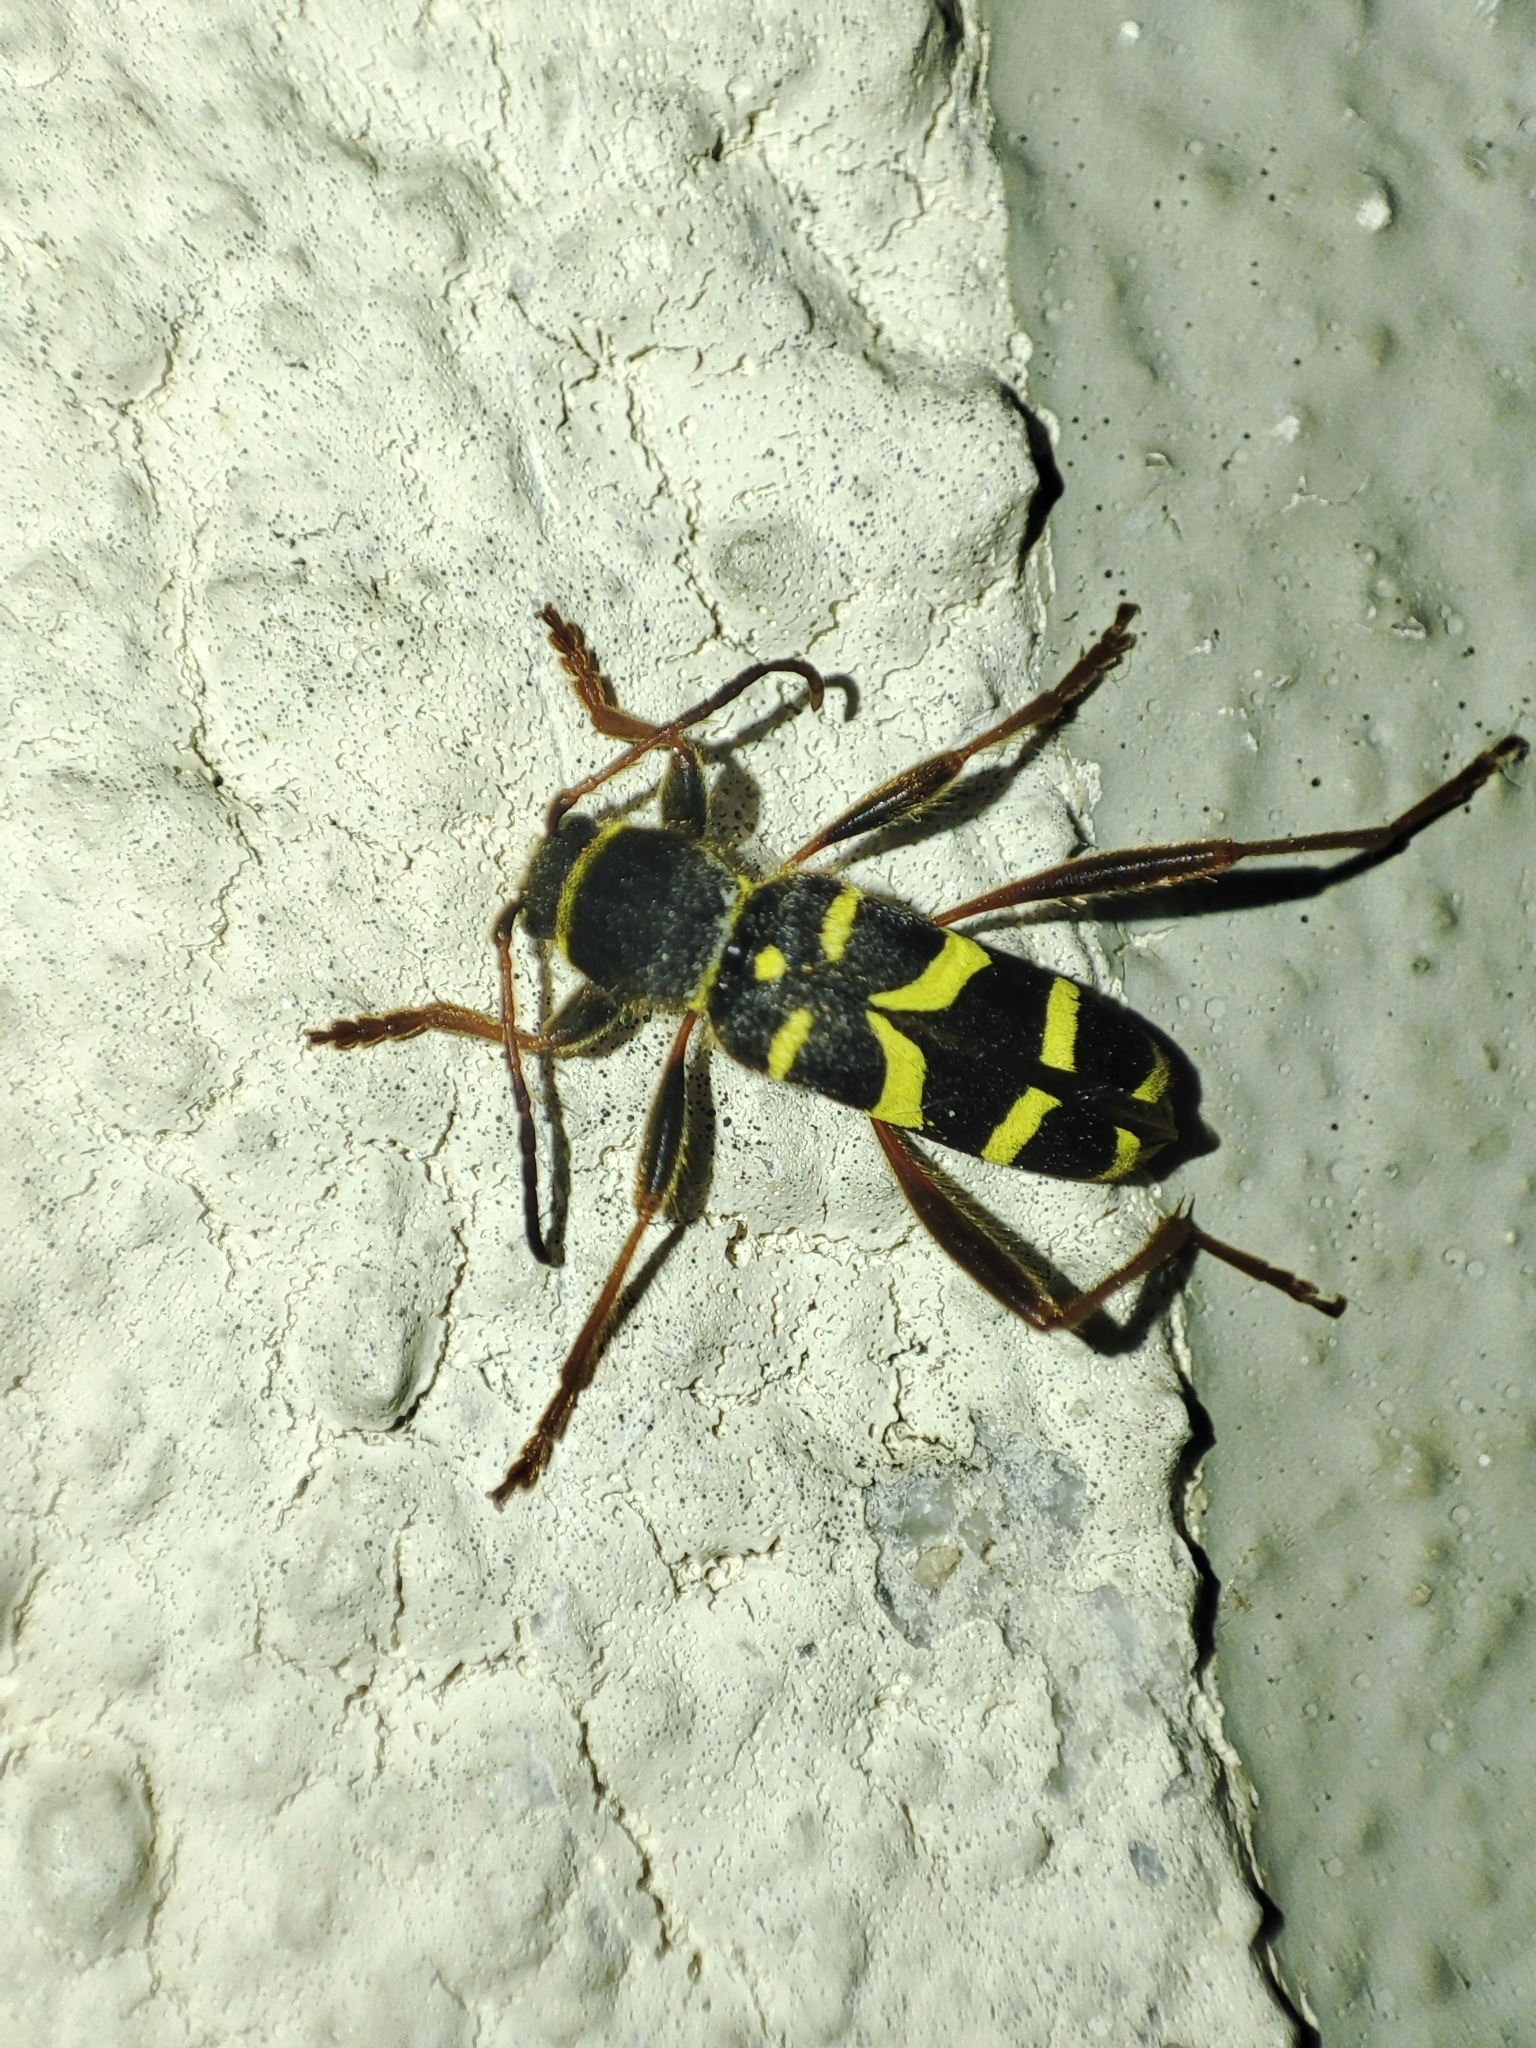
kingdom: Animalia
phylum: Arthropoda
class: Insecta
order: Coleoptera
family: Cerambycidae
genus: Clytus
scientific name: Clytus arietis
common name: Wasp beetle
